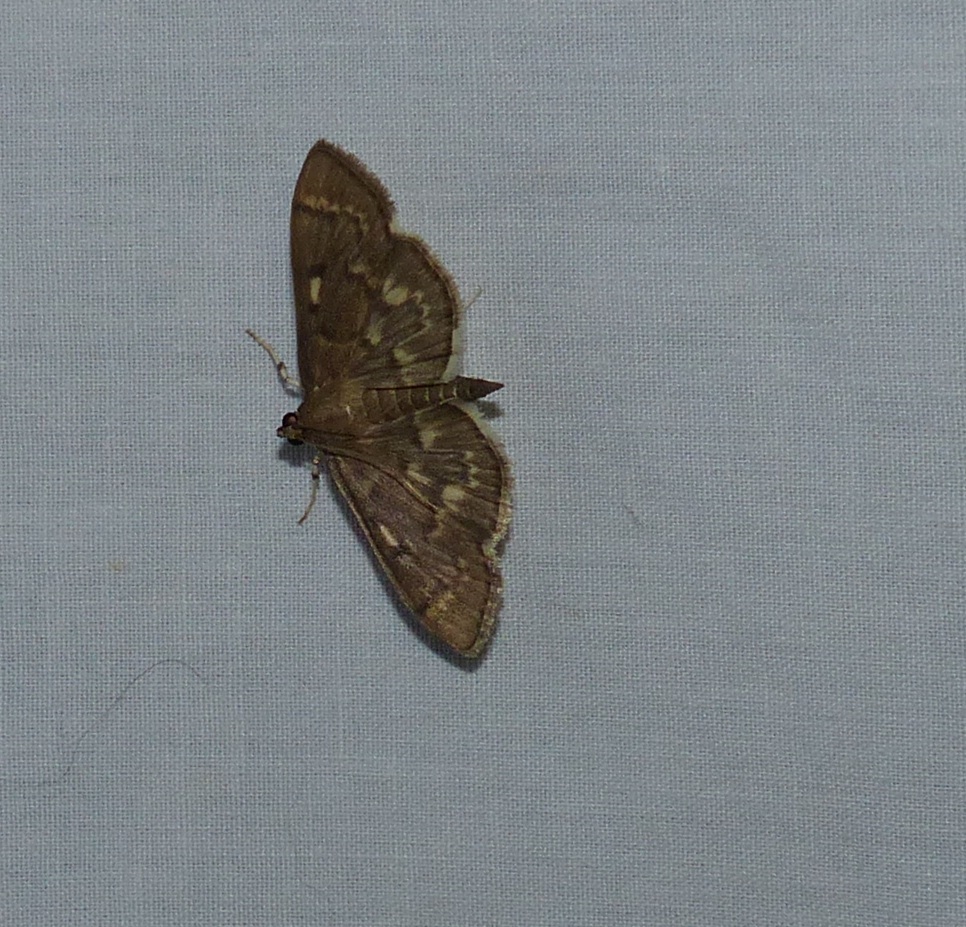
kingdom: Animalia
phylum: Arthropoda
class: Insecta
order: Lepidoptera
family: Crambidae
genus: Herpetogramma
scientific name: Herpetogramma aeglealis
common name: Serpentine webworm moth
